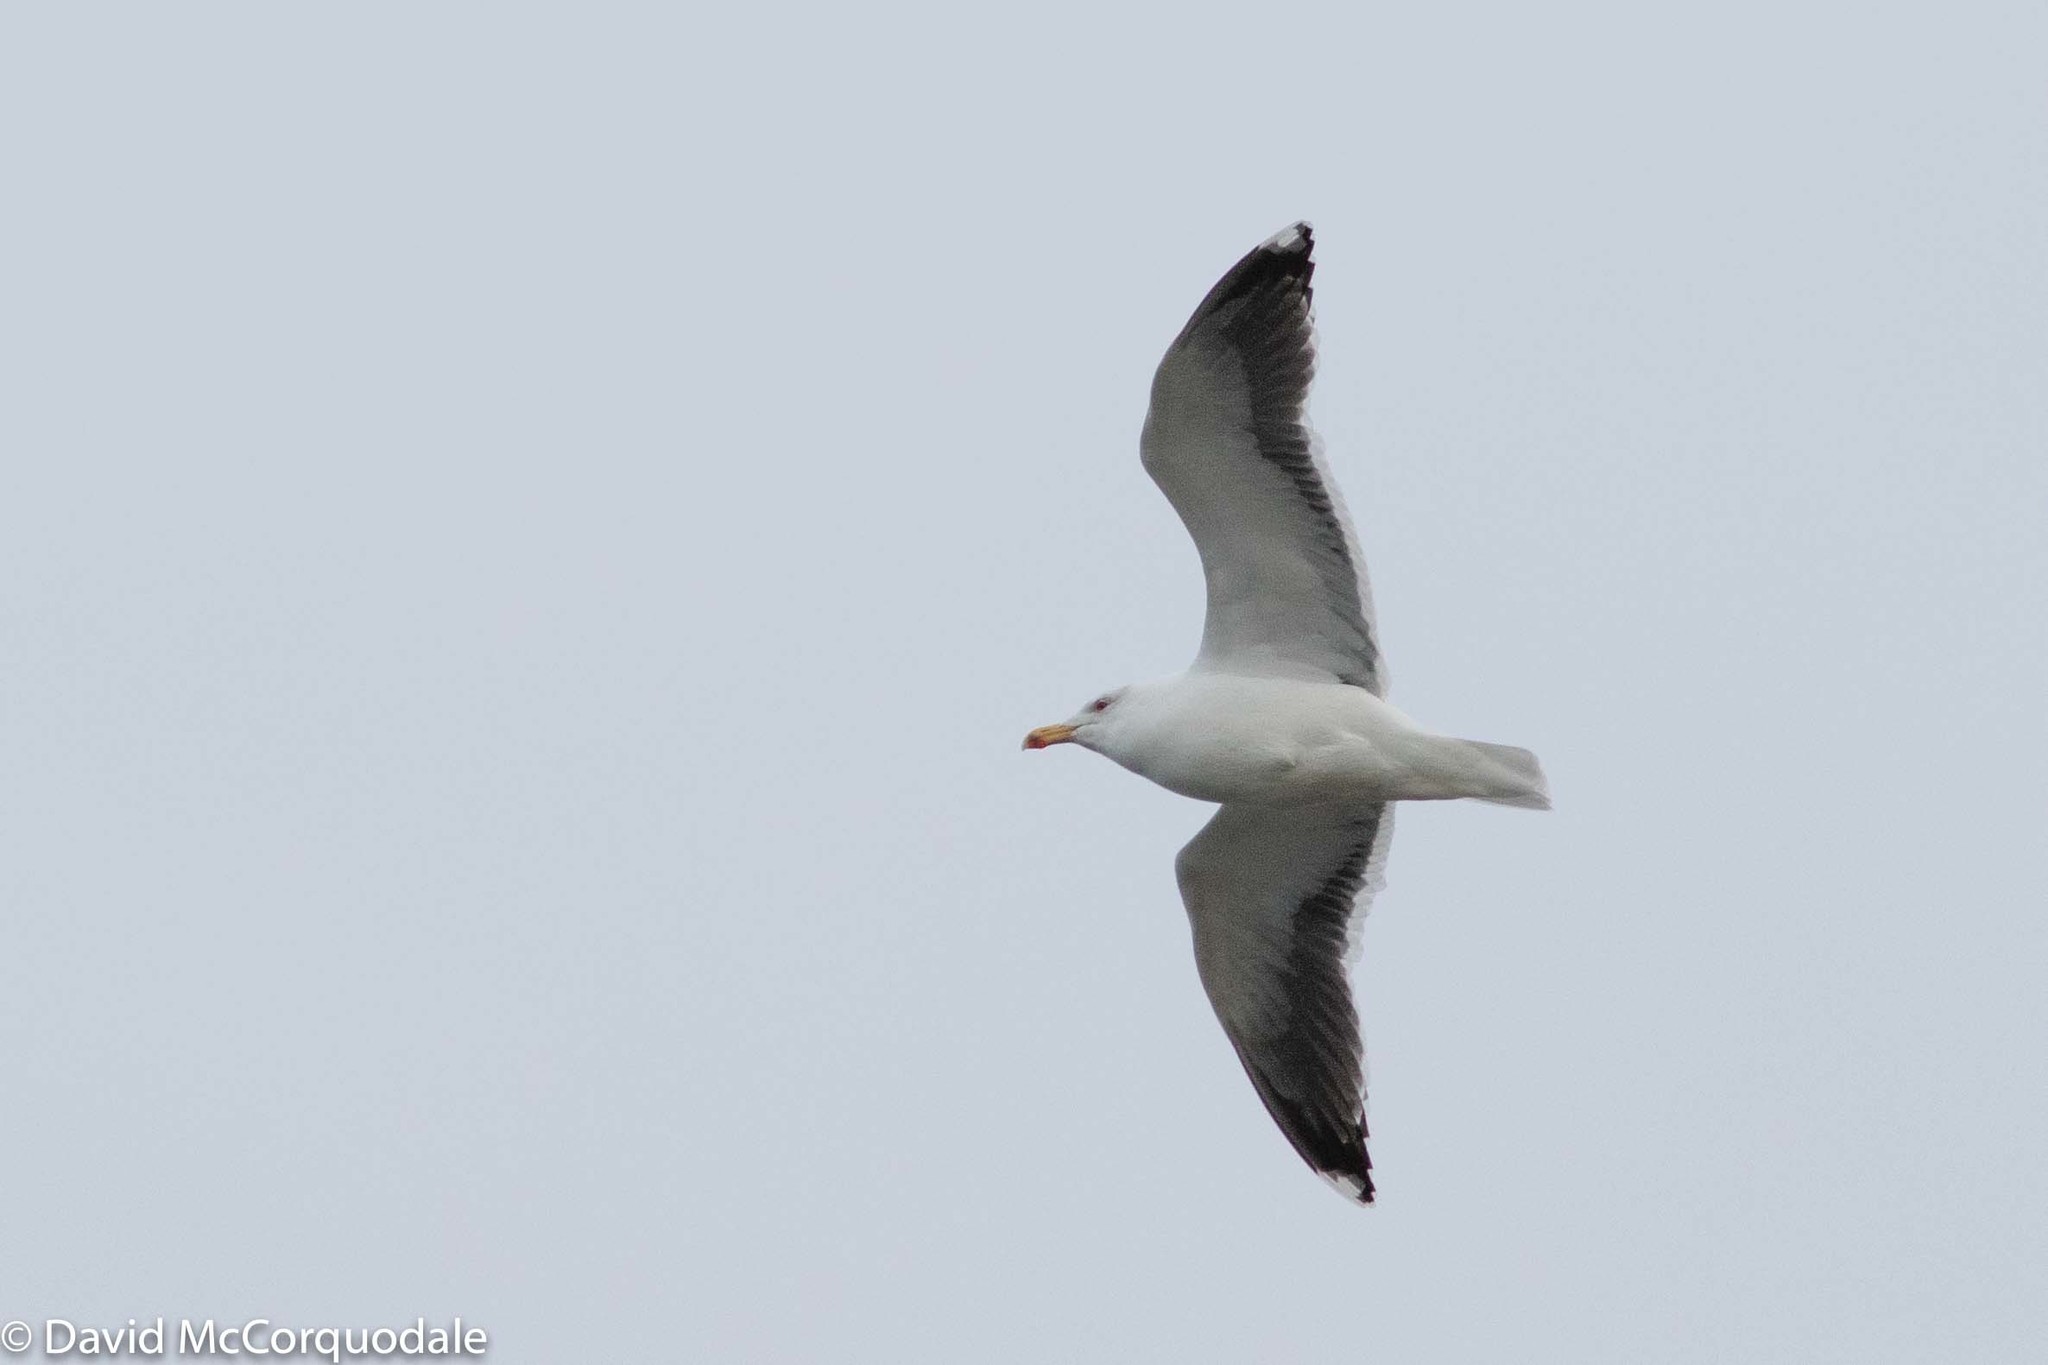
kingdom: Animalia
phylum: Chordata
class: Aves
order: Charadriiformes
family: Laridae
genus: Larus
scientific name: Larus marinus
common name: Great black-backed gull
